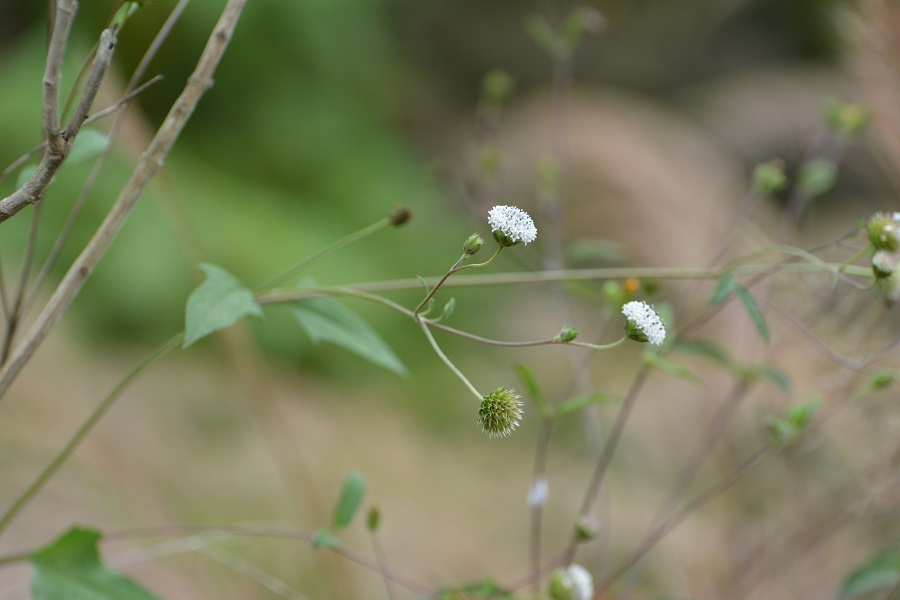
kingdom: Plantae
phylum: Tracheophyta
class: Magnoliopsida
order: Asterales
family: Asteraceae
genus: Melanthera
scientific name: Melanthera nivea
